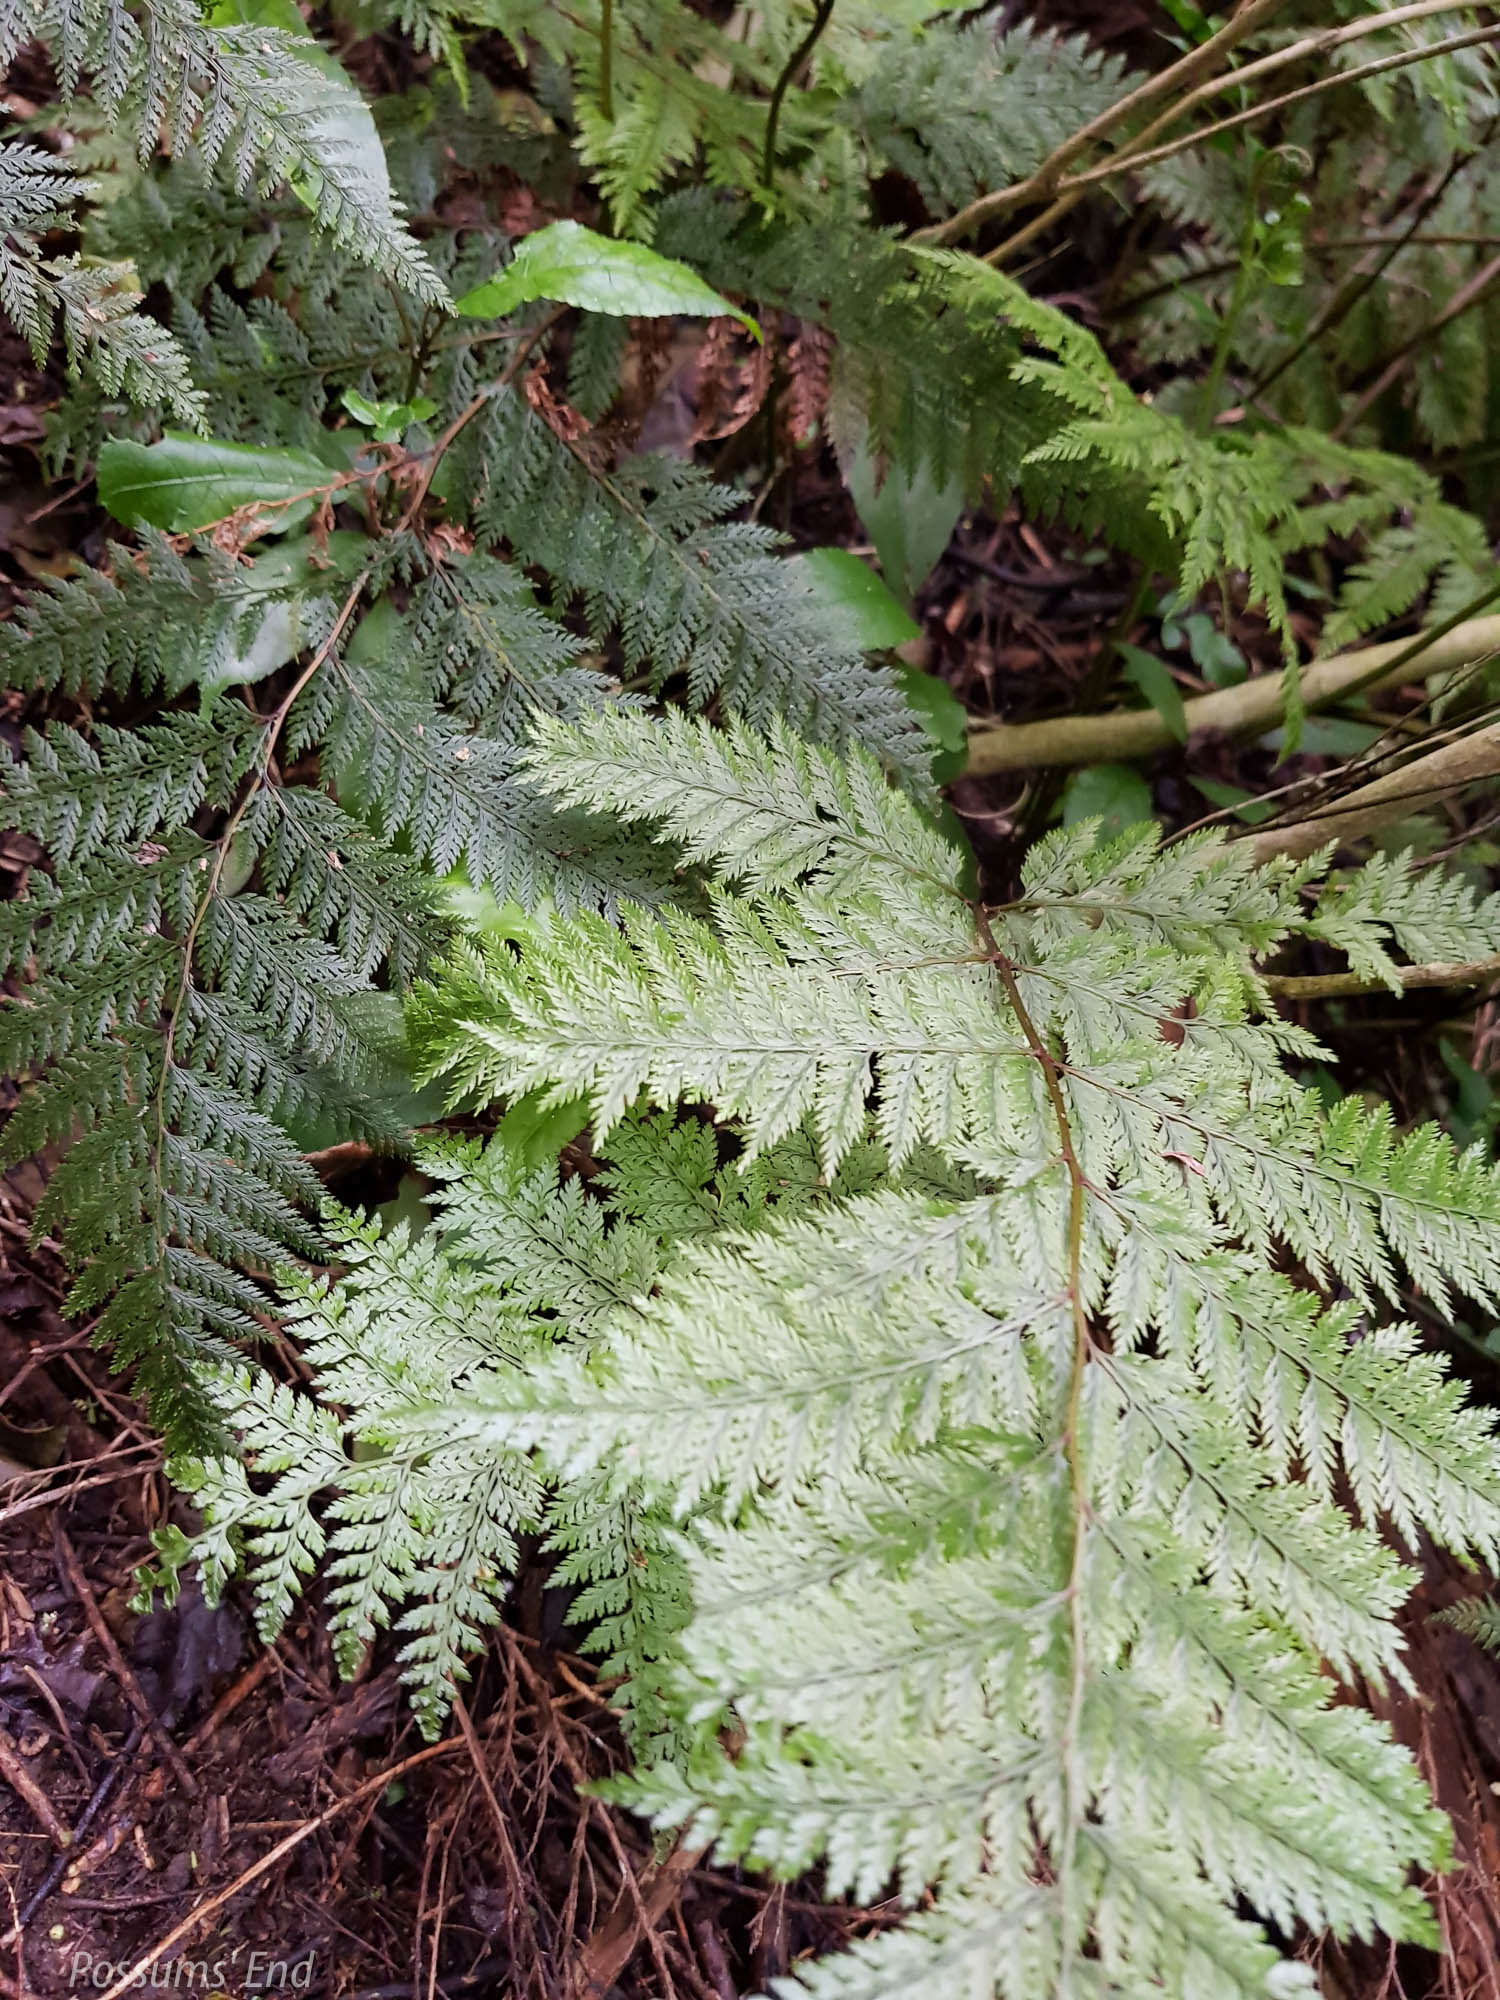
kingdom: Plantae
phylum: Tracheophyta
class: Polypodiopsida
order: Polypodiales
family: Dennstaedtiaceae
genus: Dennstaedtia
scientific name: Dennstaedtia novae-zelandiae
